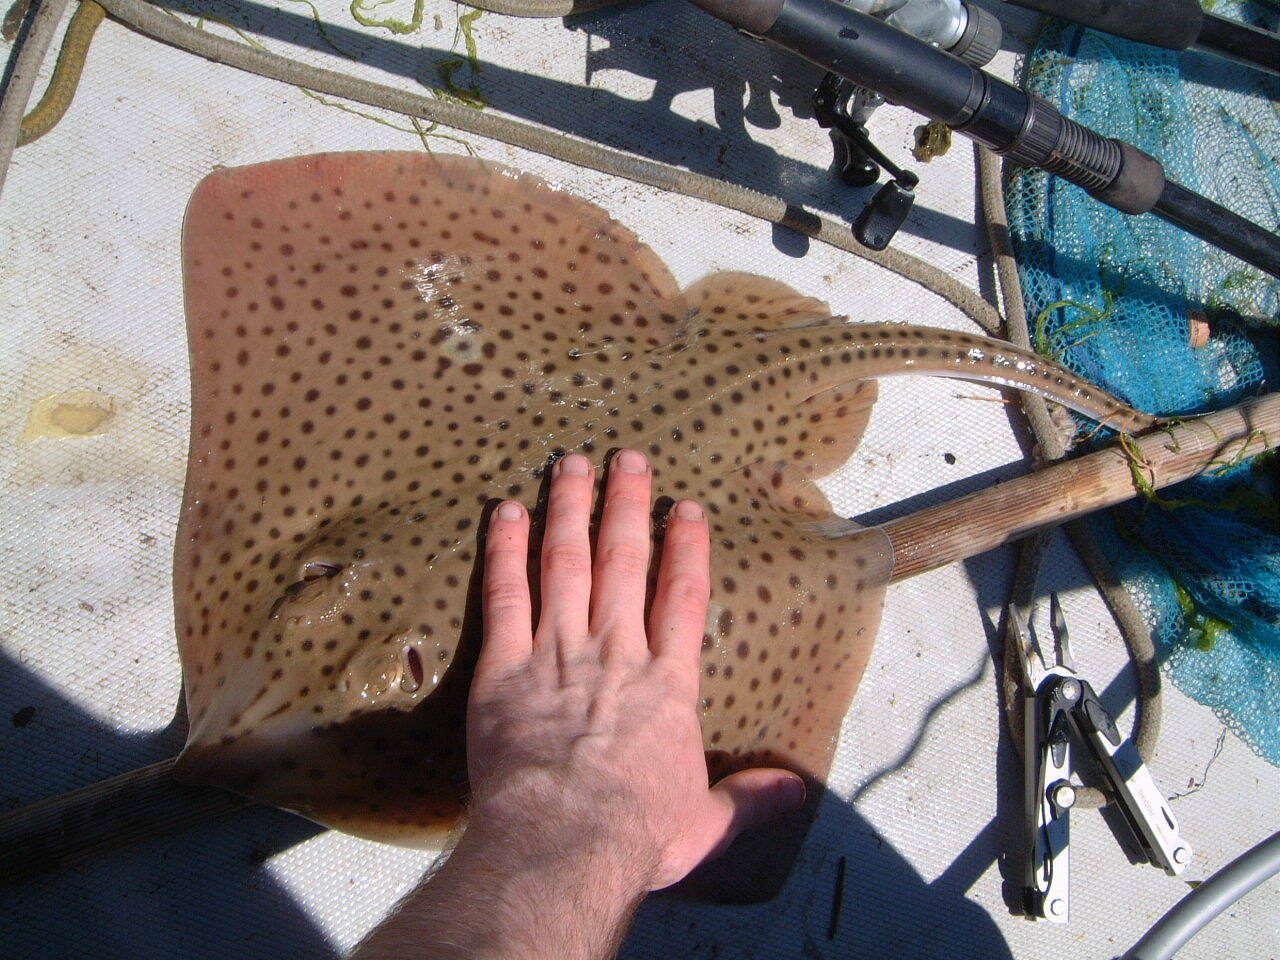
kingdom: Animalia
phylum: Chordata
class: Elasmobranchii
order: Rajiformes
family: Rajidae
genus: Raja
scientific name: Raja montagui
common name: Spotted ray
